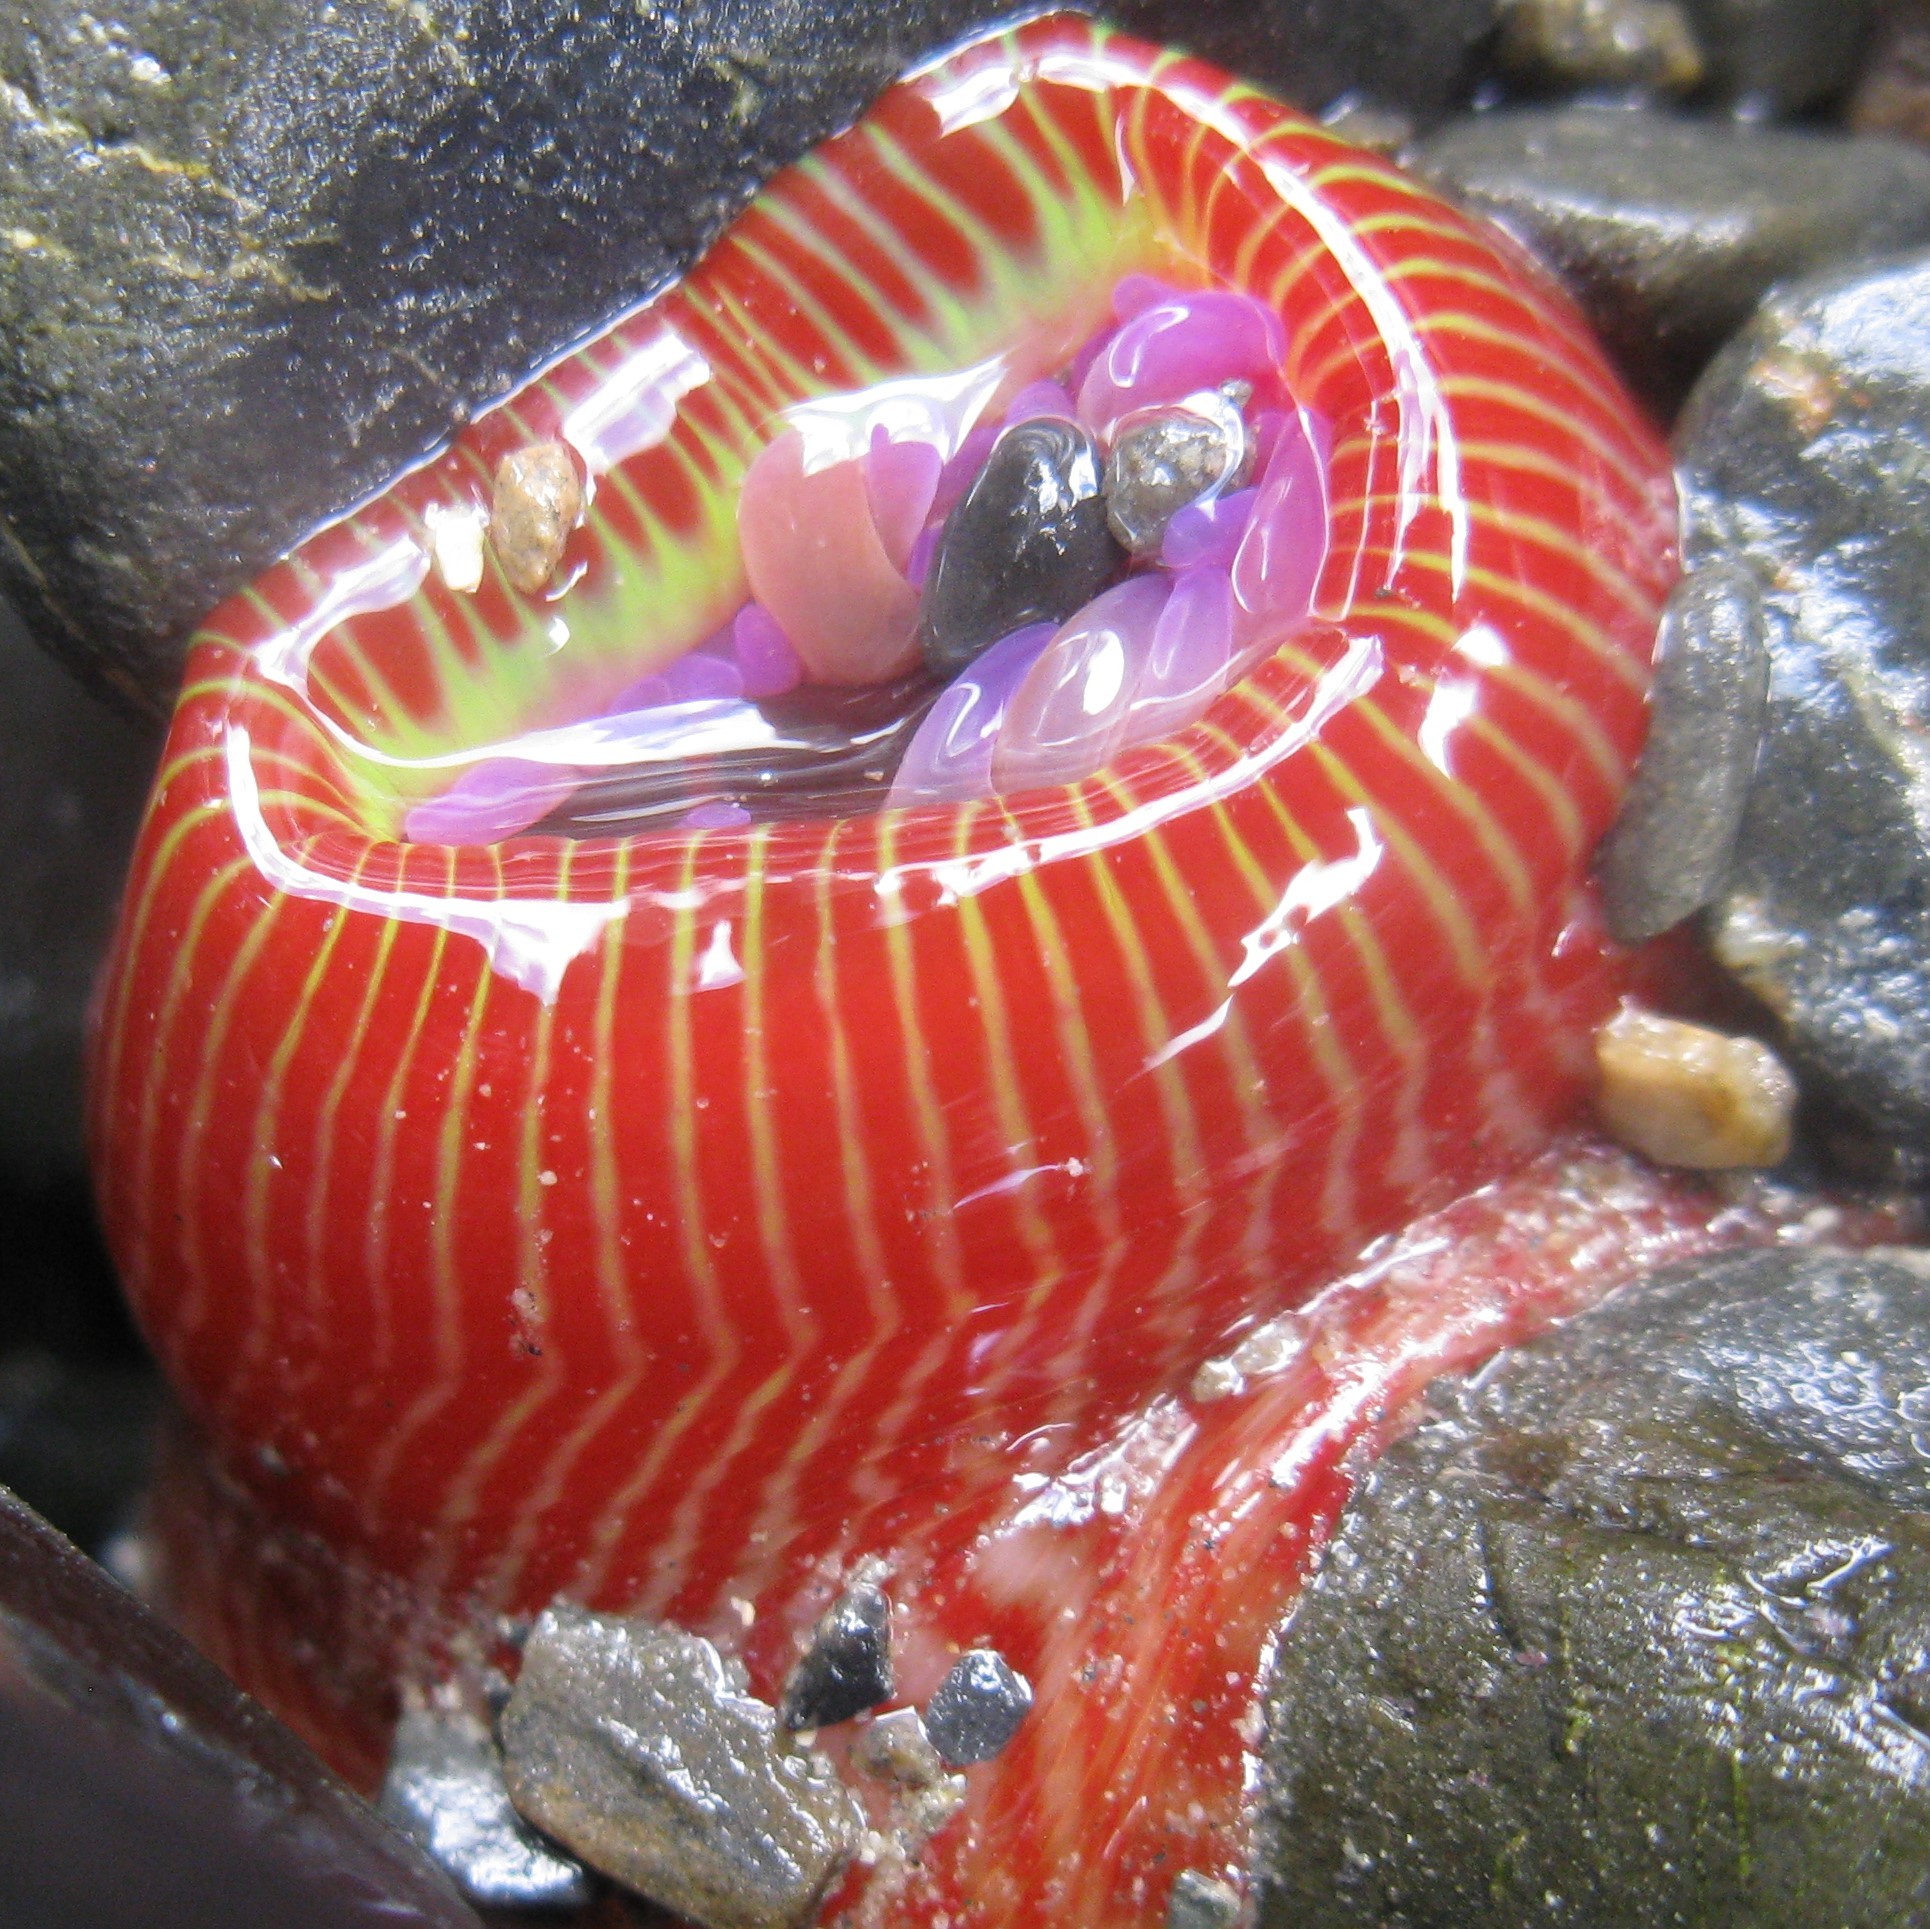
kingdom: Animalia
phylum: Cnidaria
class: Anthozoa
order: Actiniaria
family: Actiniidae
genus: Epiactis
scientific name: Epiactis thompsoni
